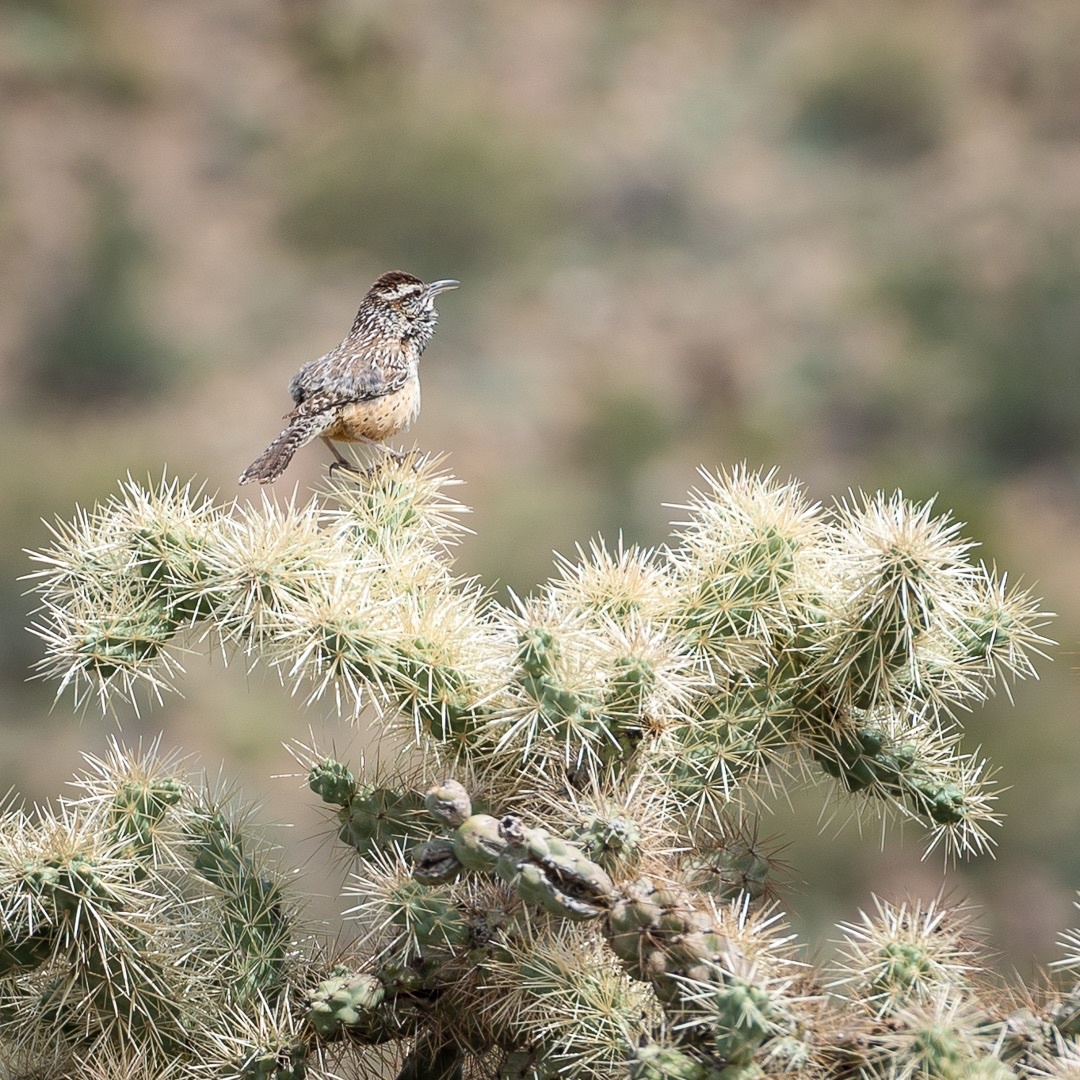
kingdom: Animalia
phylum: Chordata
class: Aves
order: Passeriformes
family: Troglodytidae
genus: Campylorhynchus
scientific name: Campylorhynchus brunneicapillus
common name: Cactus wren
